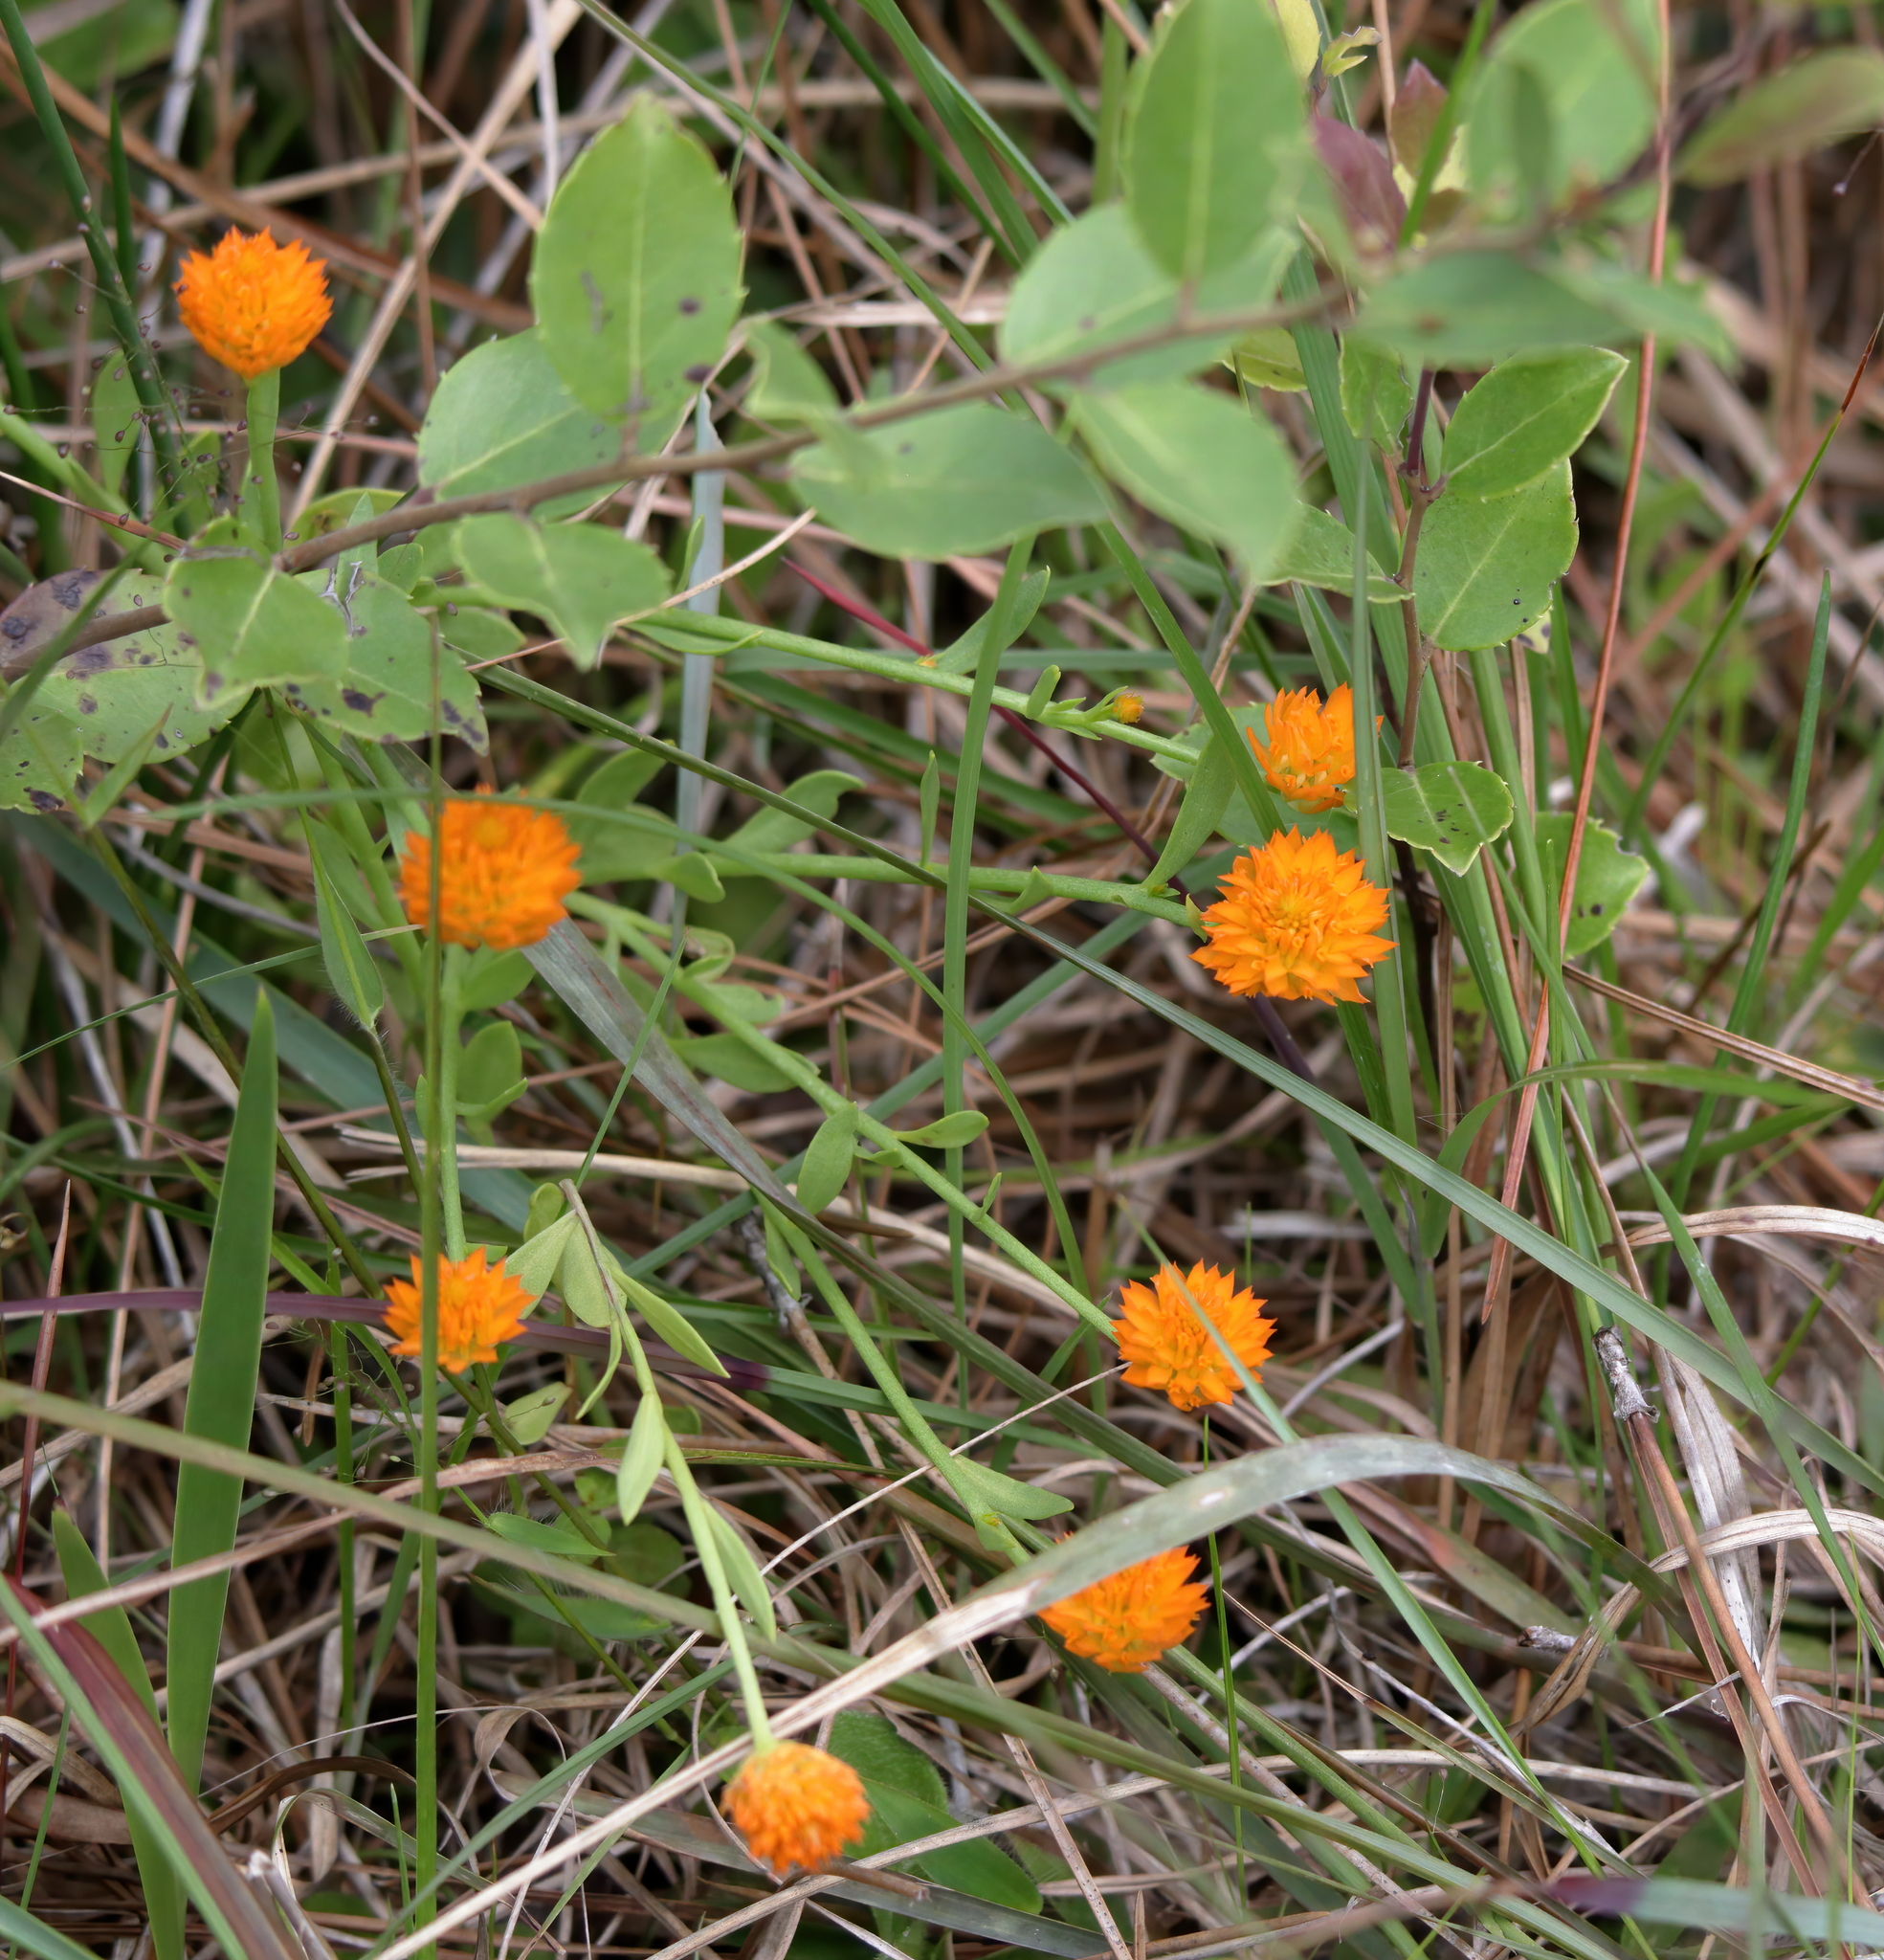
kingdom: Plantae
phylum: Tracheophyta
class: Magnoliopsida
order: Fabales
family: Polygalaceae
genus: Polygala
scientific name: Polygala lutea
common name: Orange milkwort
